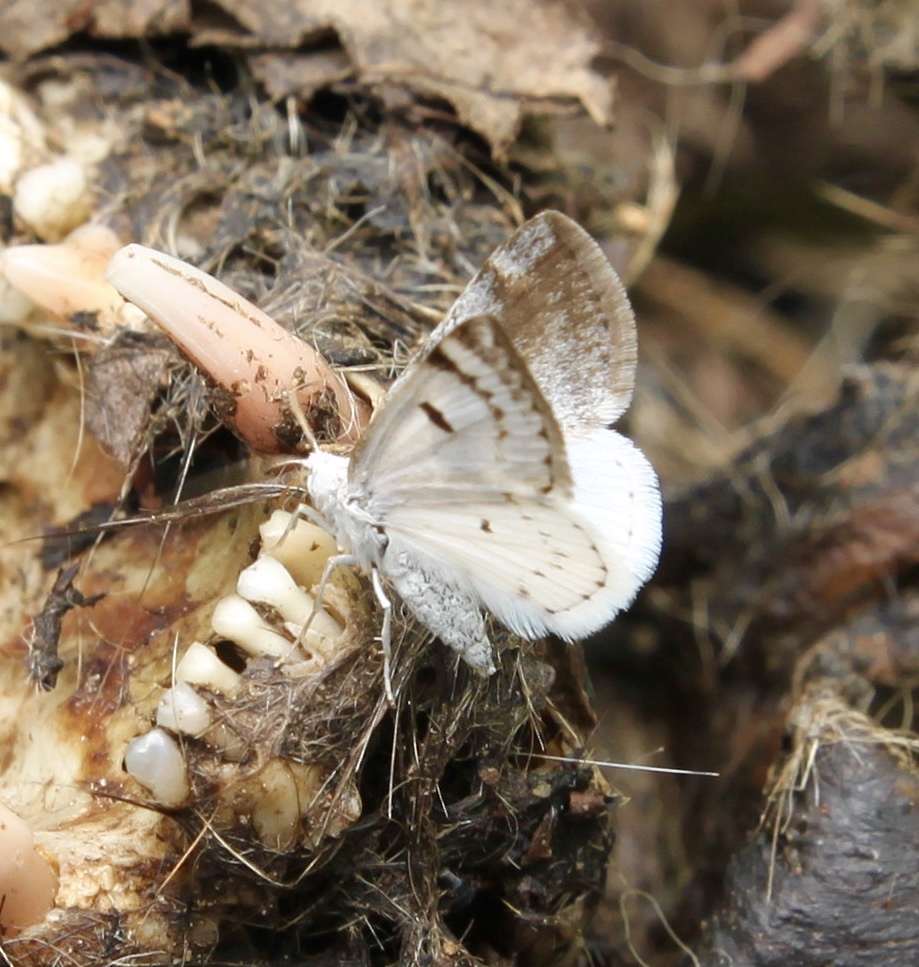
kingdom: Animalia
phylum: Arthropoda
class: Insecta
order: Lepidoptera
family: Geometridae
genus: Lomographa
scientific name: Lomographa semiclarata
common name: Bluish spring moth
